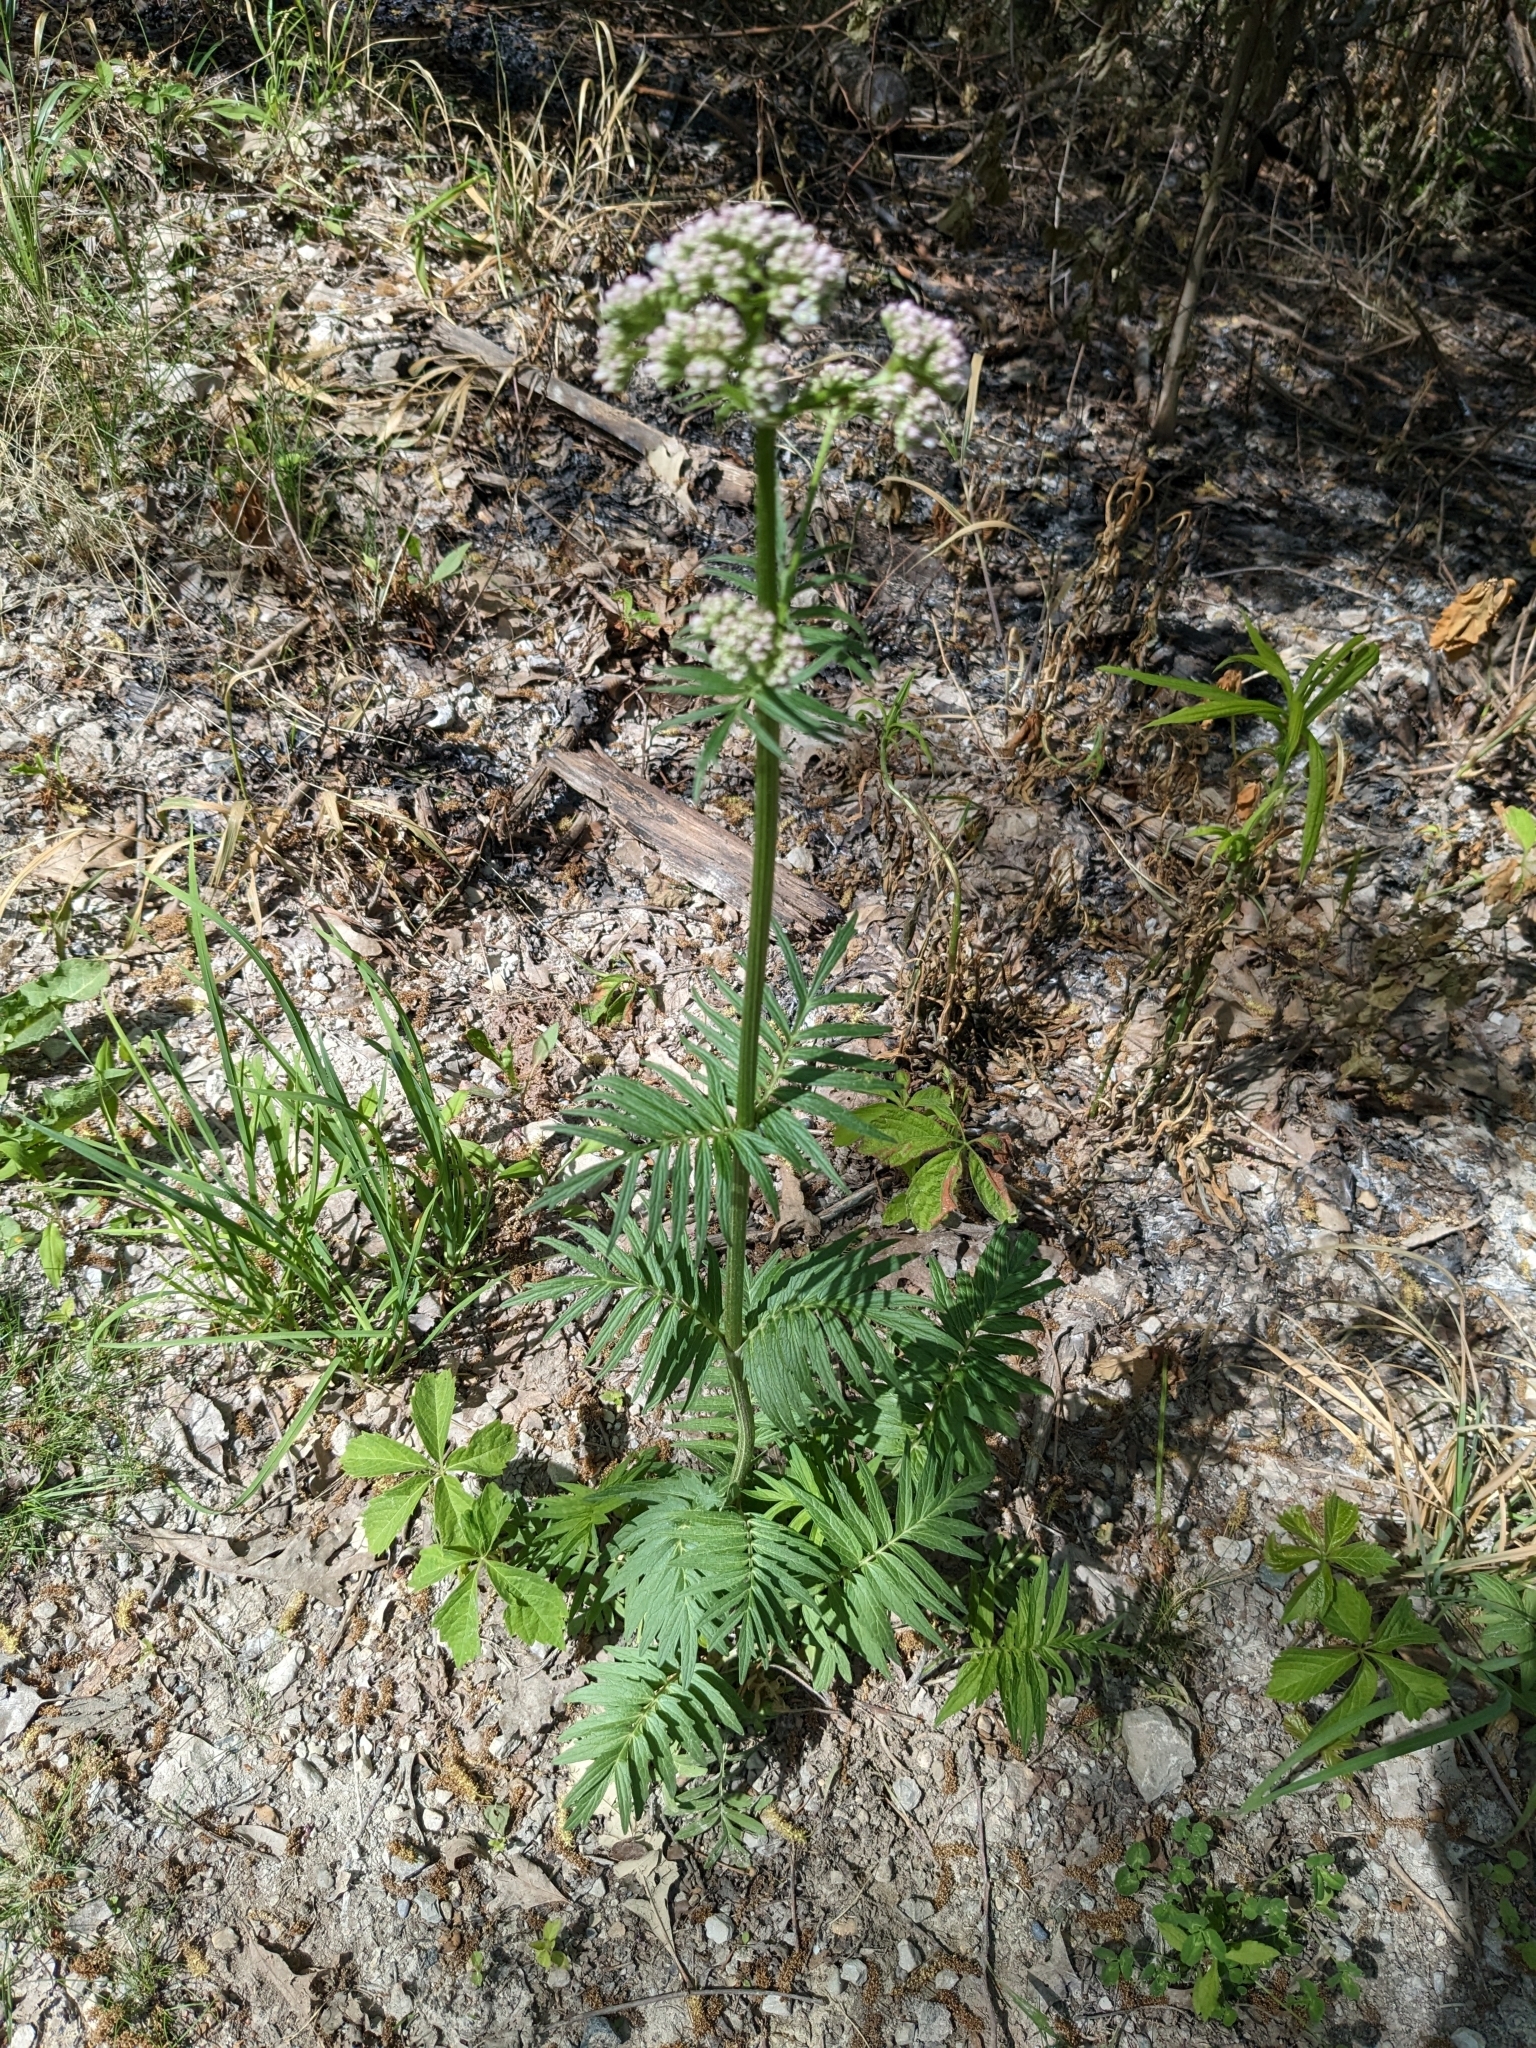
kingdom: Plantae
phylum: Tracheophyta
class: Magnoliopsida
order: Dipsacales
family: Caprifoliaceae
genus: Valeriana
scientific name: Valeriana officinalis
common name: Common valerian
